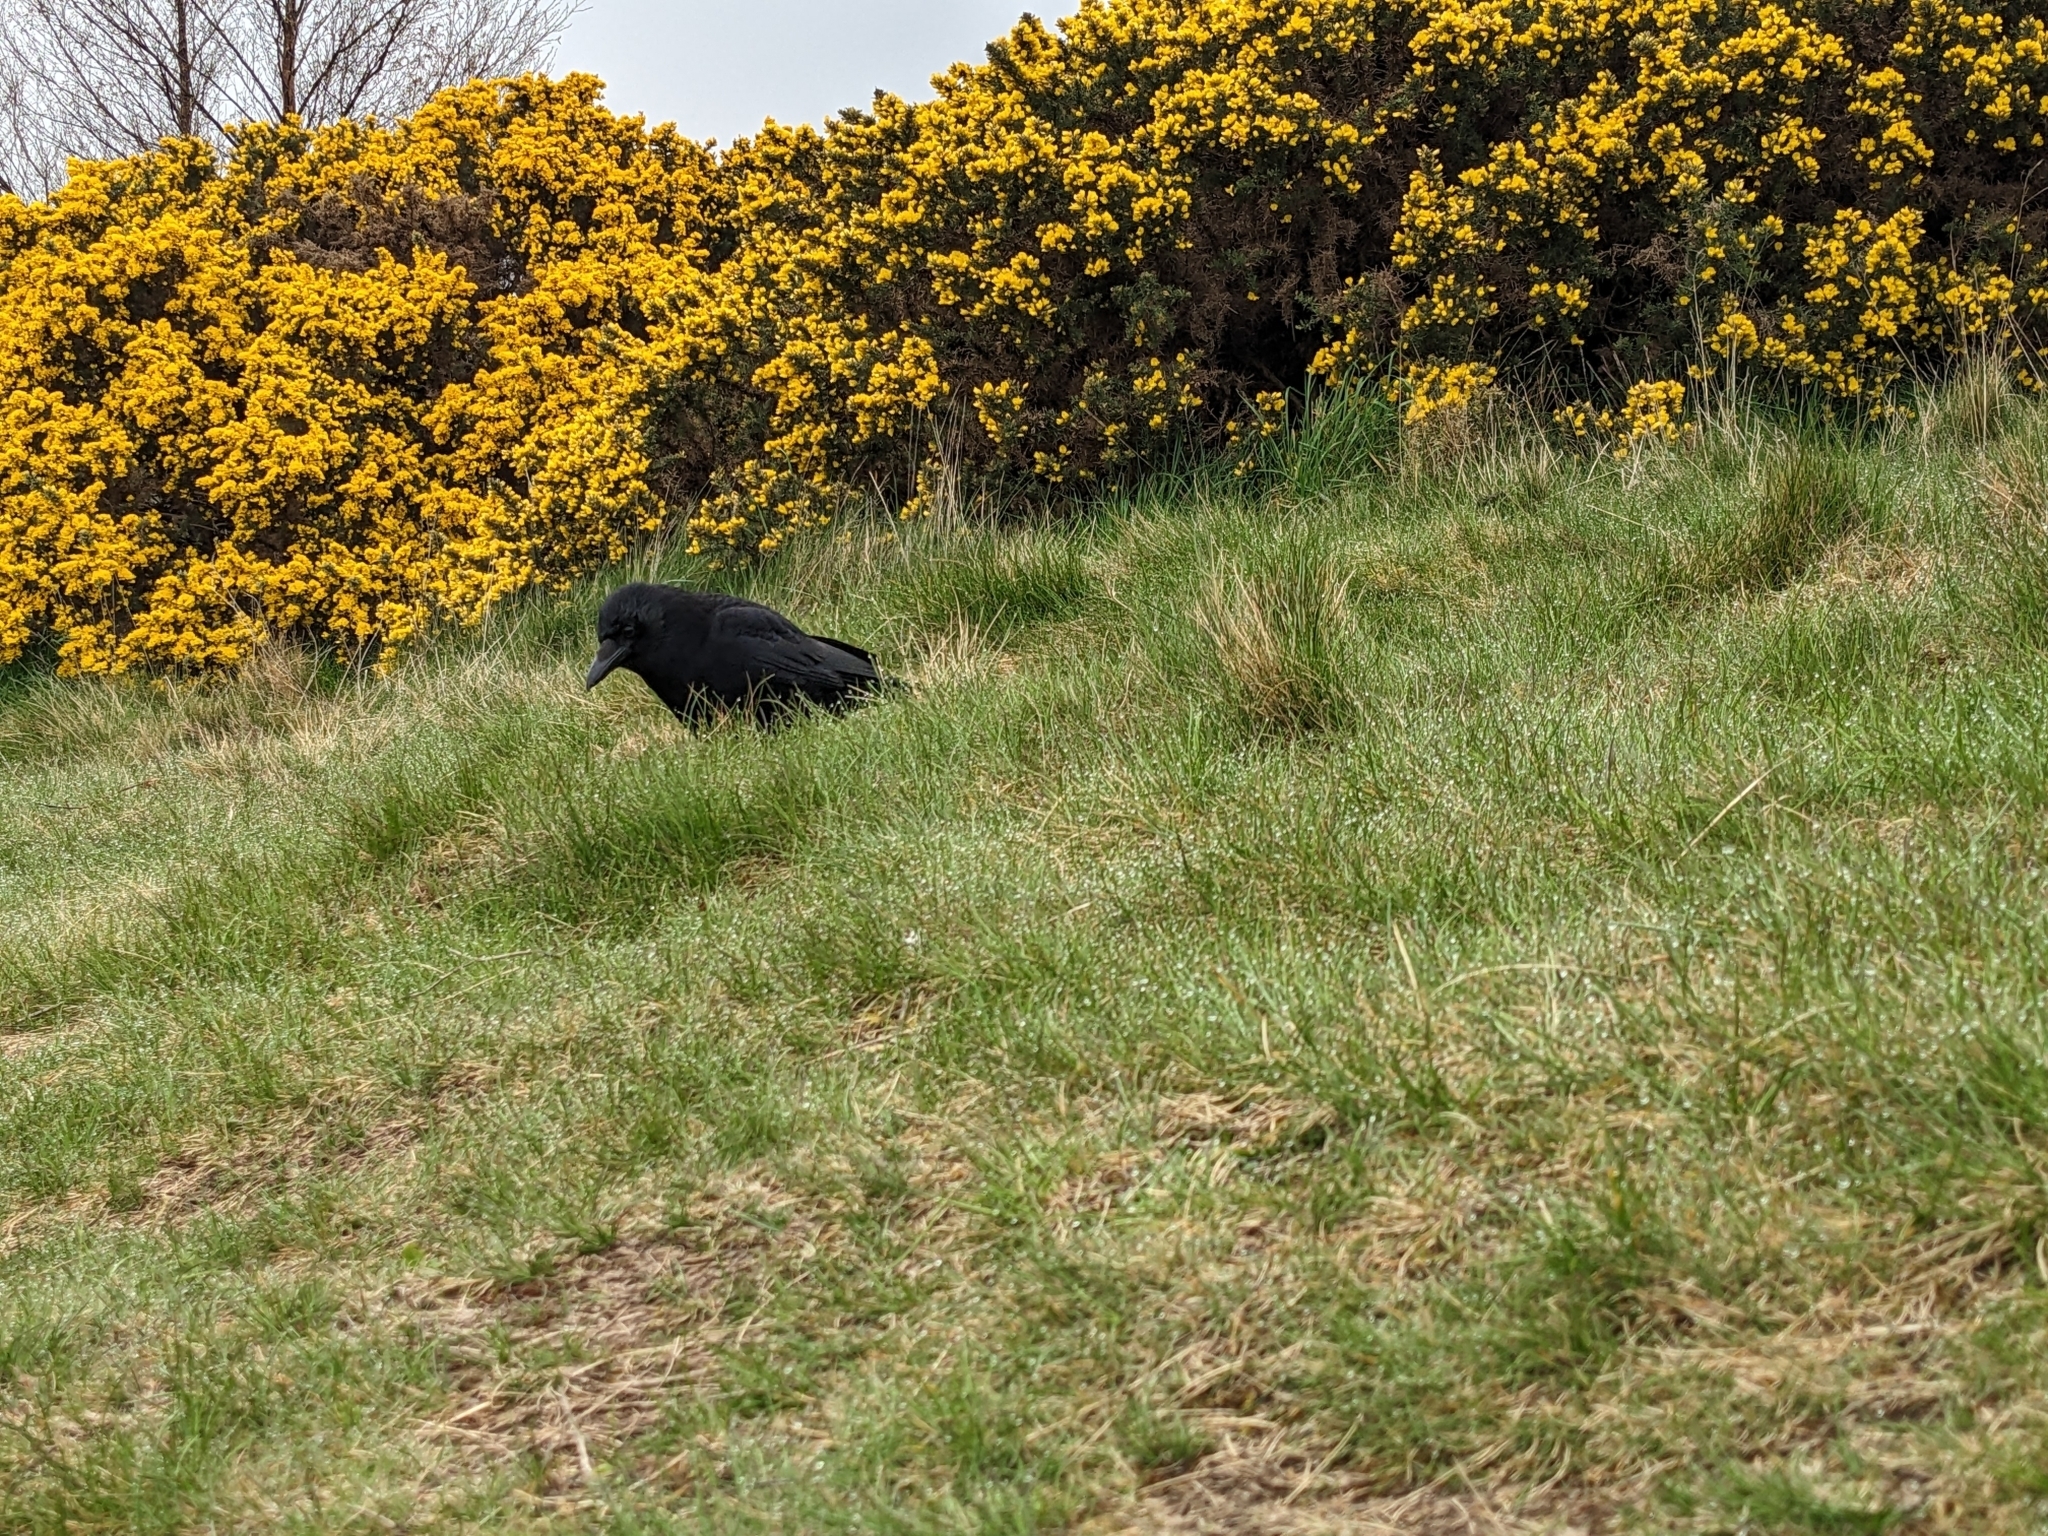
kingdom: Plantae
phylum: Tracheophyta
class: Magnoliopsida
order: Fabales
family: Fabaceae
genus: Ulex
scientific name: Ulex europaeus
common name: Common gorse
